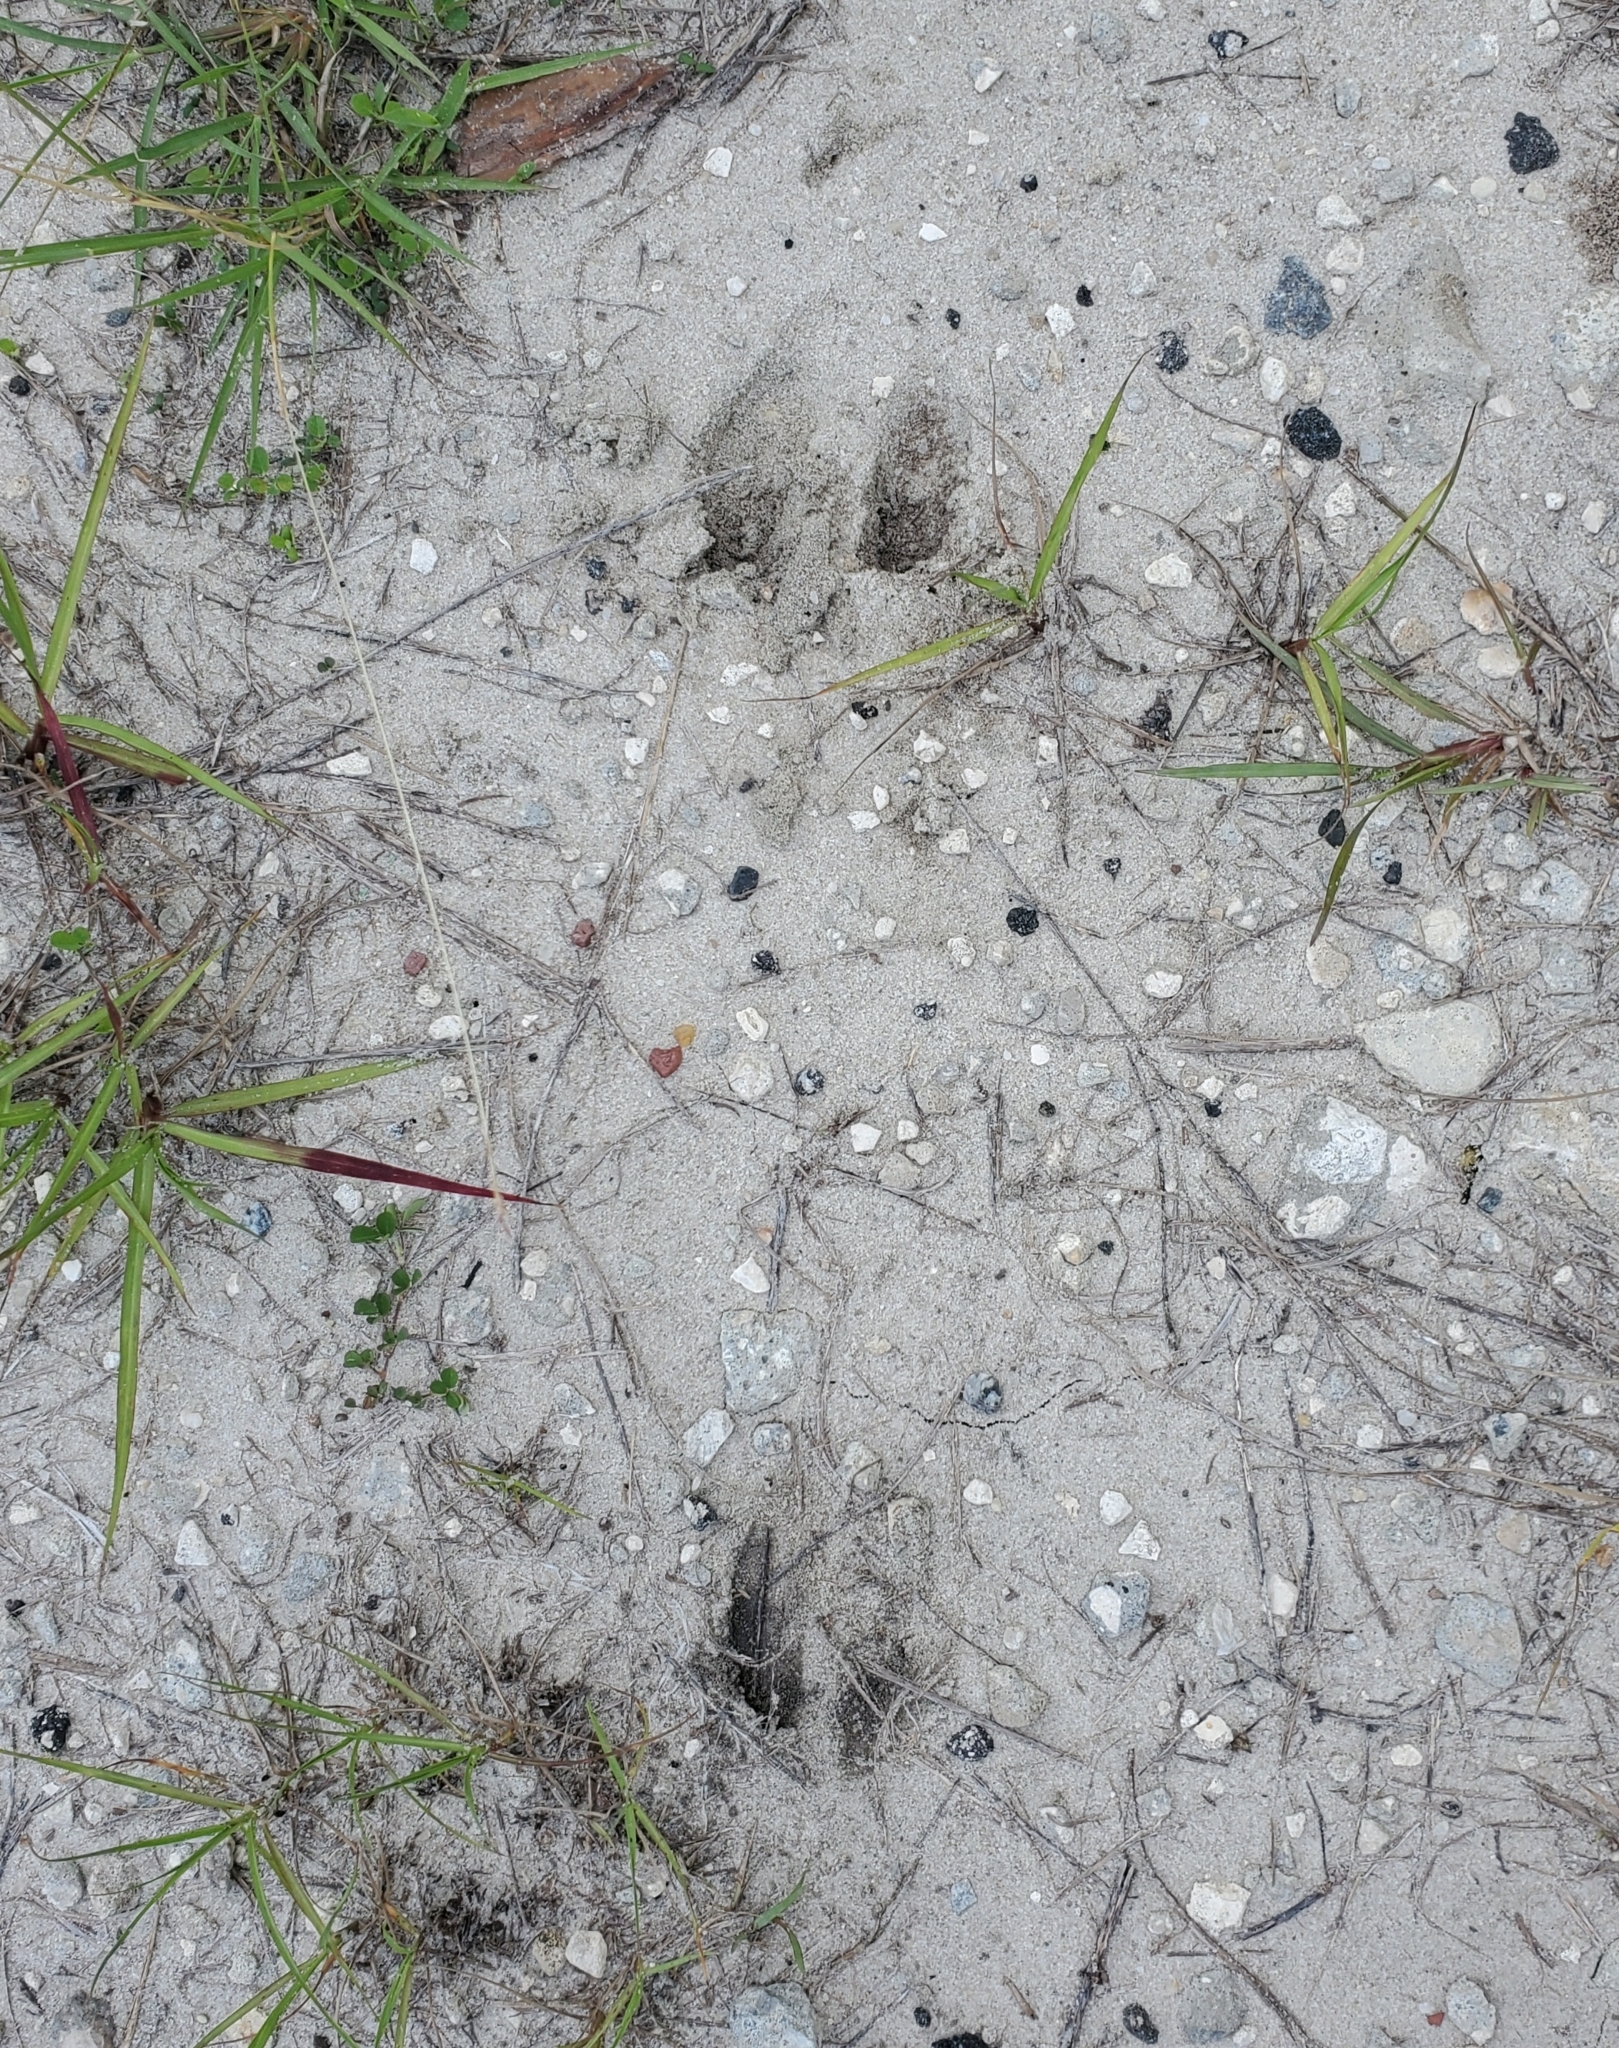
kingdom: Animalia
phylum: Chordata
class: Mammalia
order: Artiodactyla
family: Cervidae
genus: Odocoileus
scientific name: Odocoileus virginianus
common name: White-tailed deer
